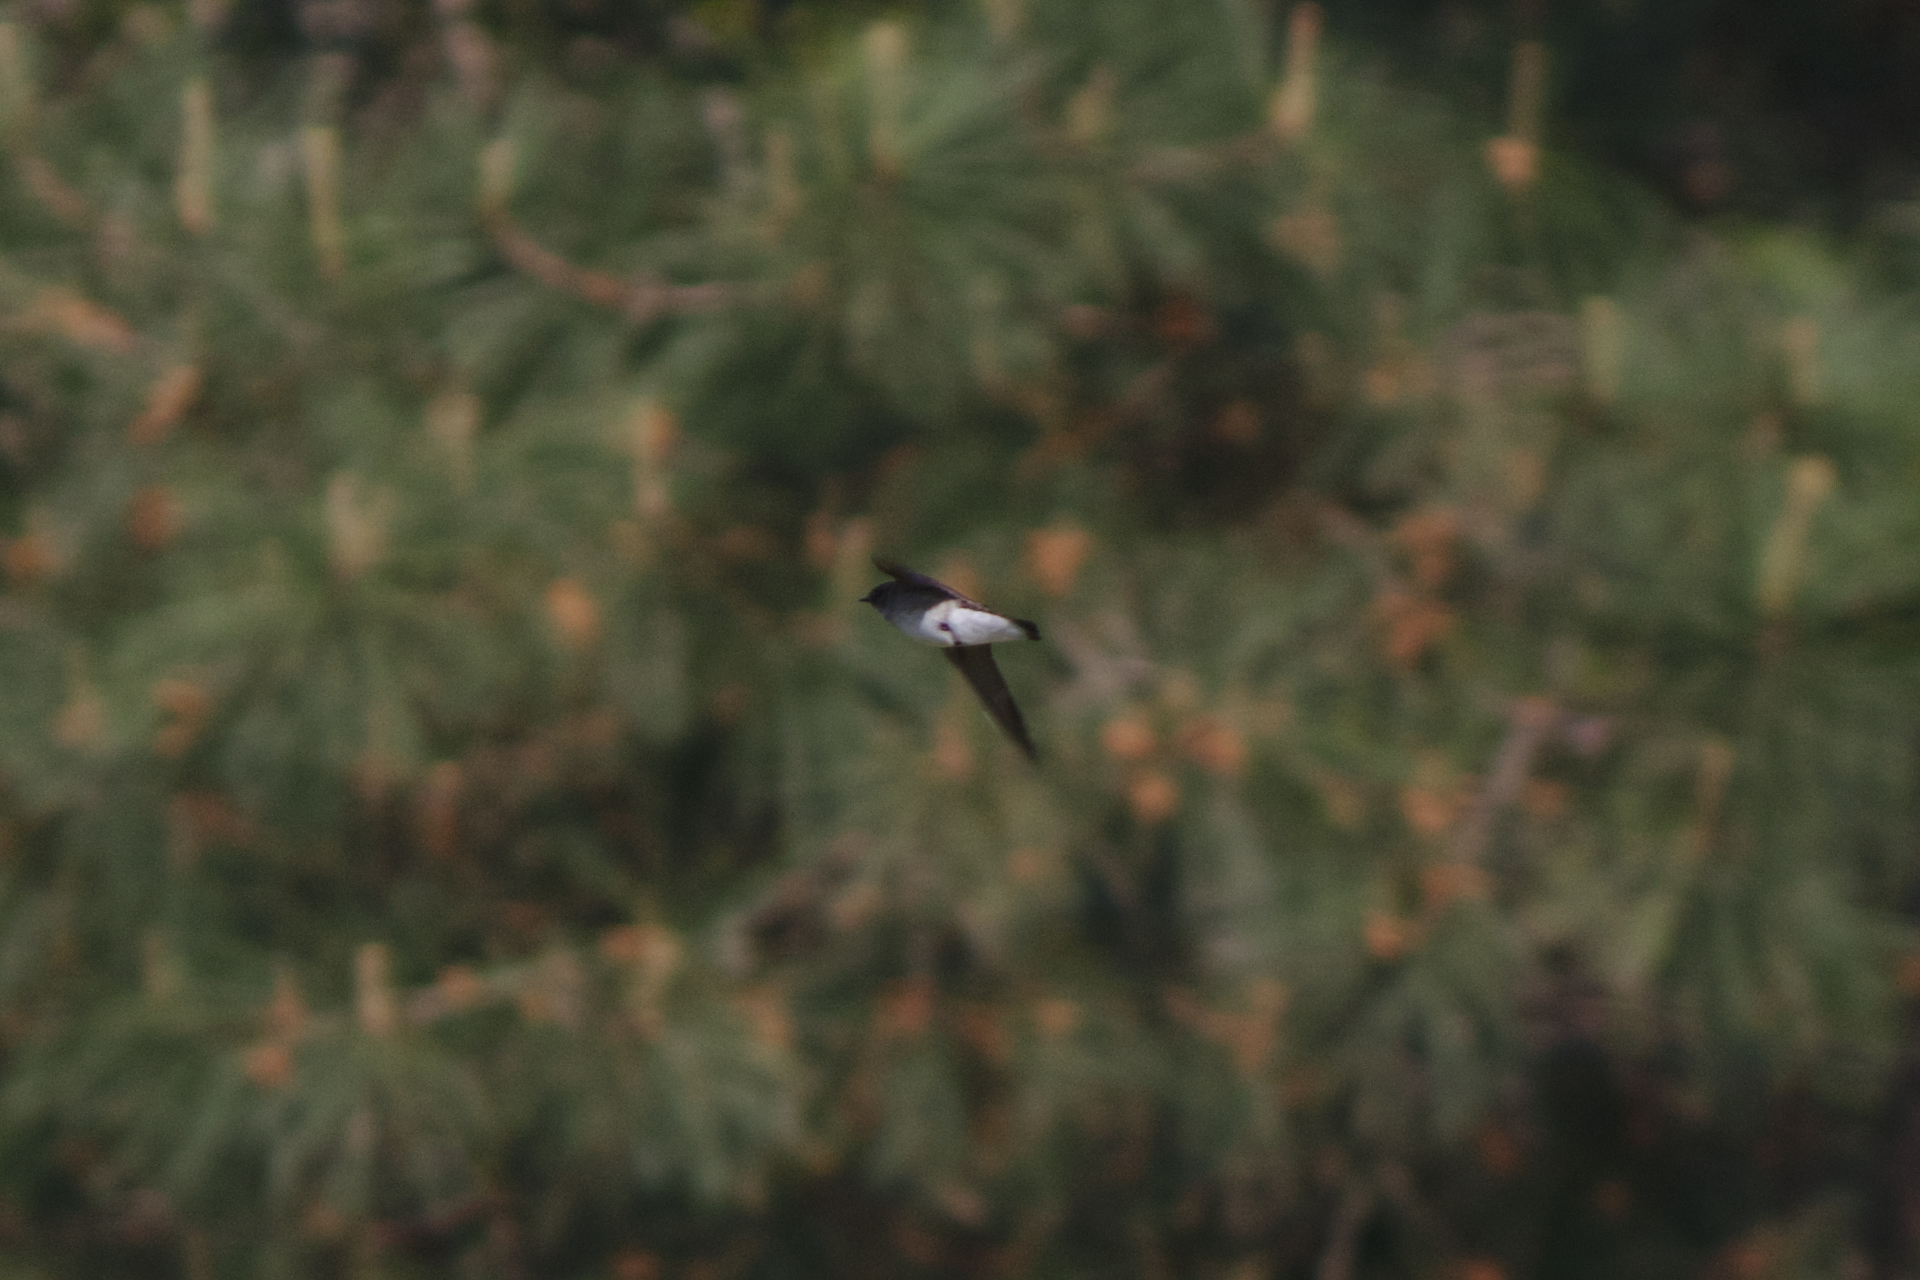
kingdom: Animalia
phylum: Chordata
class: Aves
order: Passeriformes
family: Hirundinidae
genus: Stelgidopteryx
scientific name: Stelgidopteryx serripennis
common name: Northern rough-winged swallow
